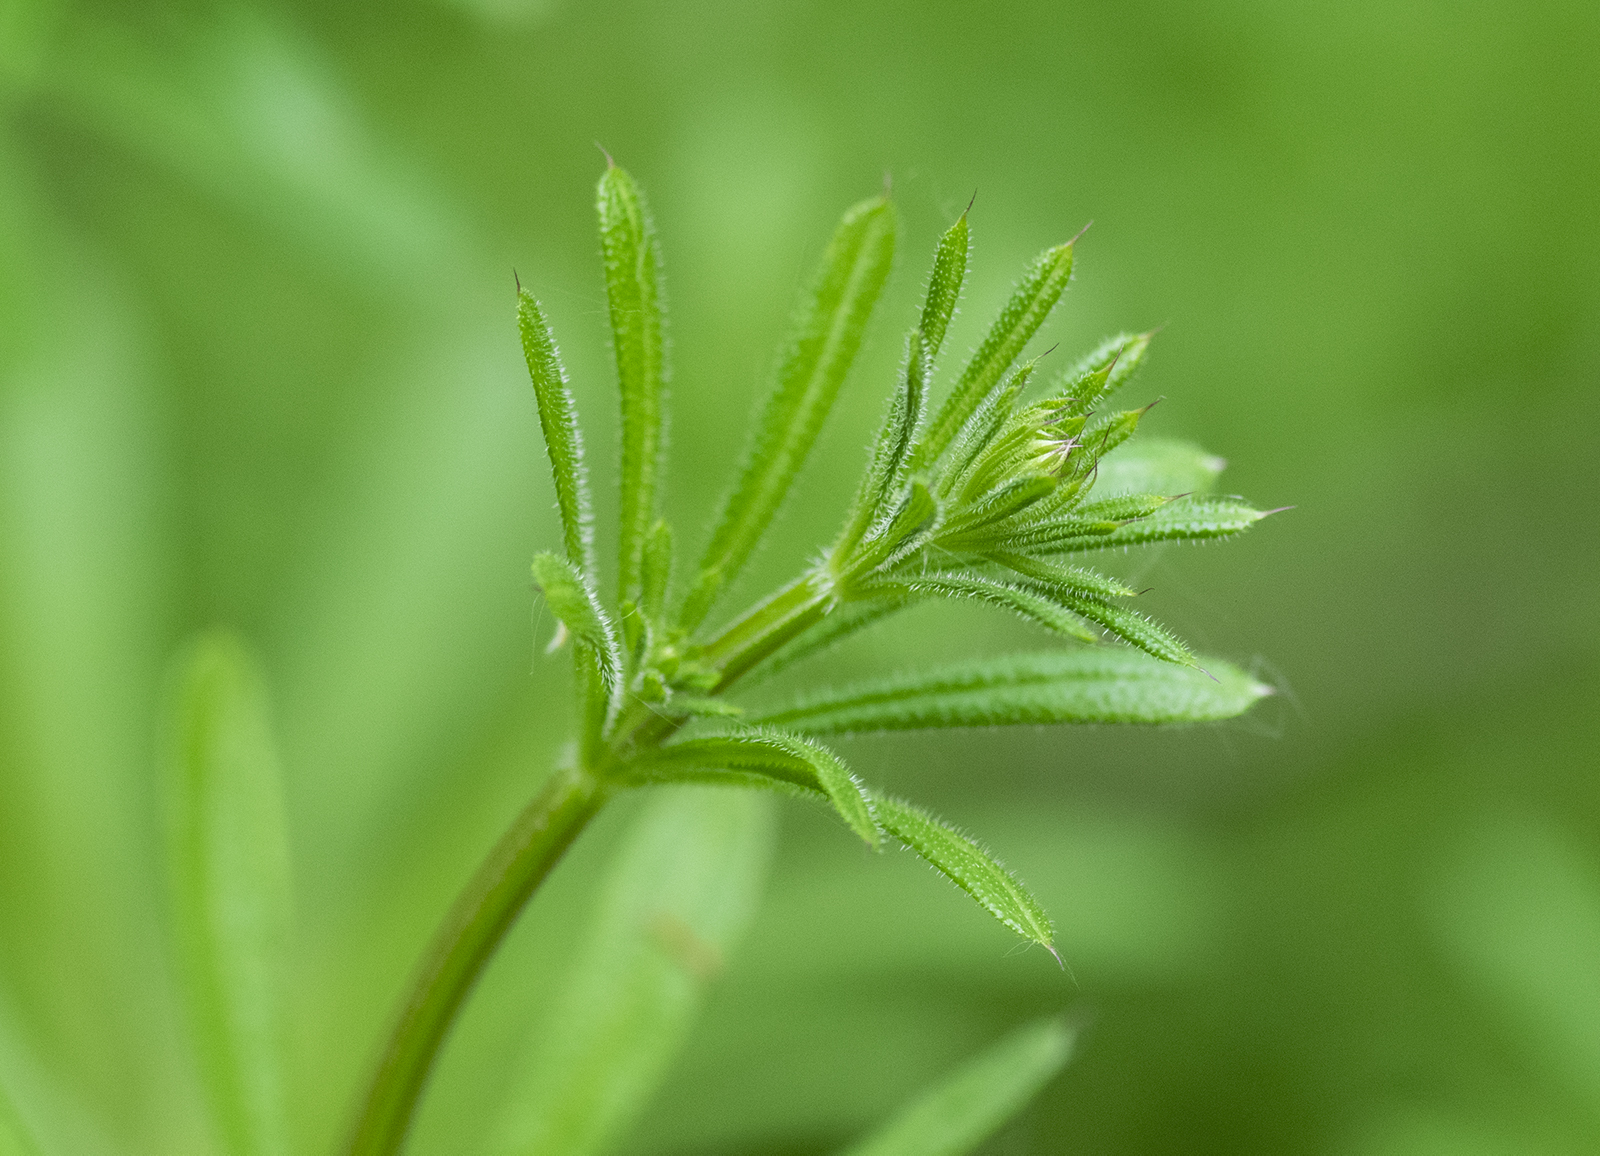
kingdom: Plantae
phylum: Tracheophyta
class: Magnoliopsida
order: Gentianales
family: Rubiaceae
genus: Galium
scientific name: Galium aparine
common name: Cleavers
